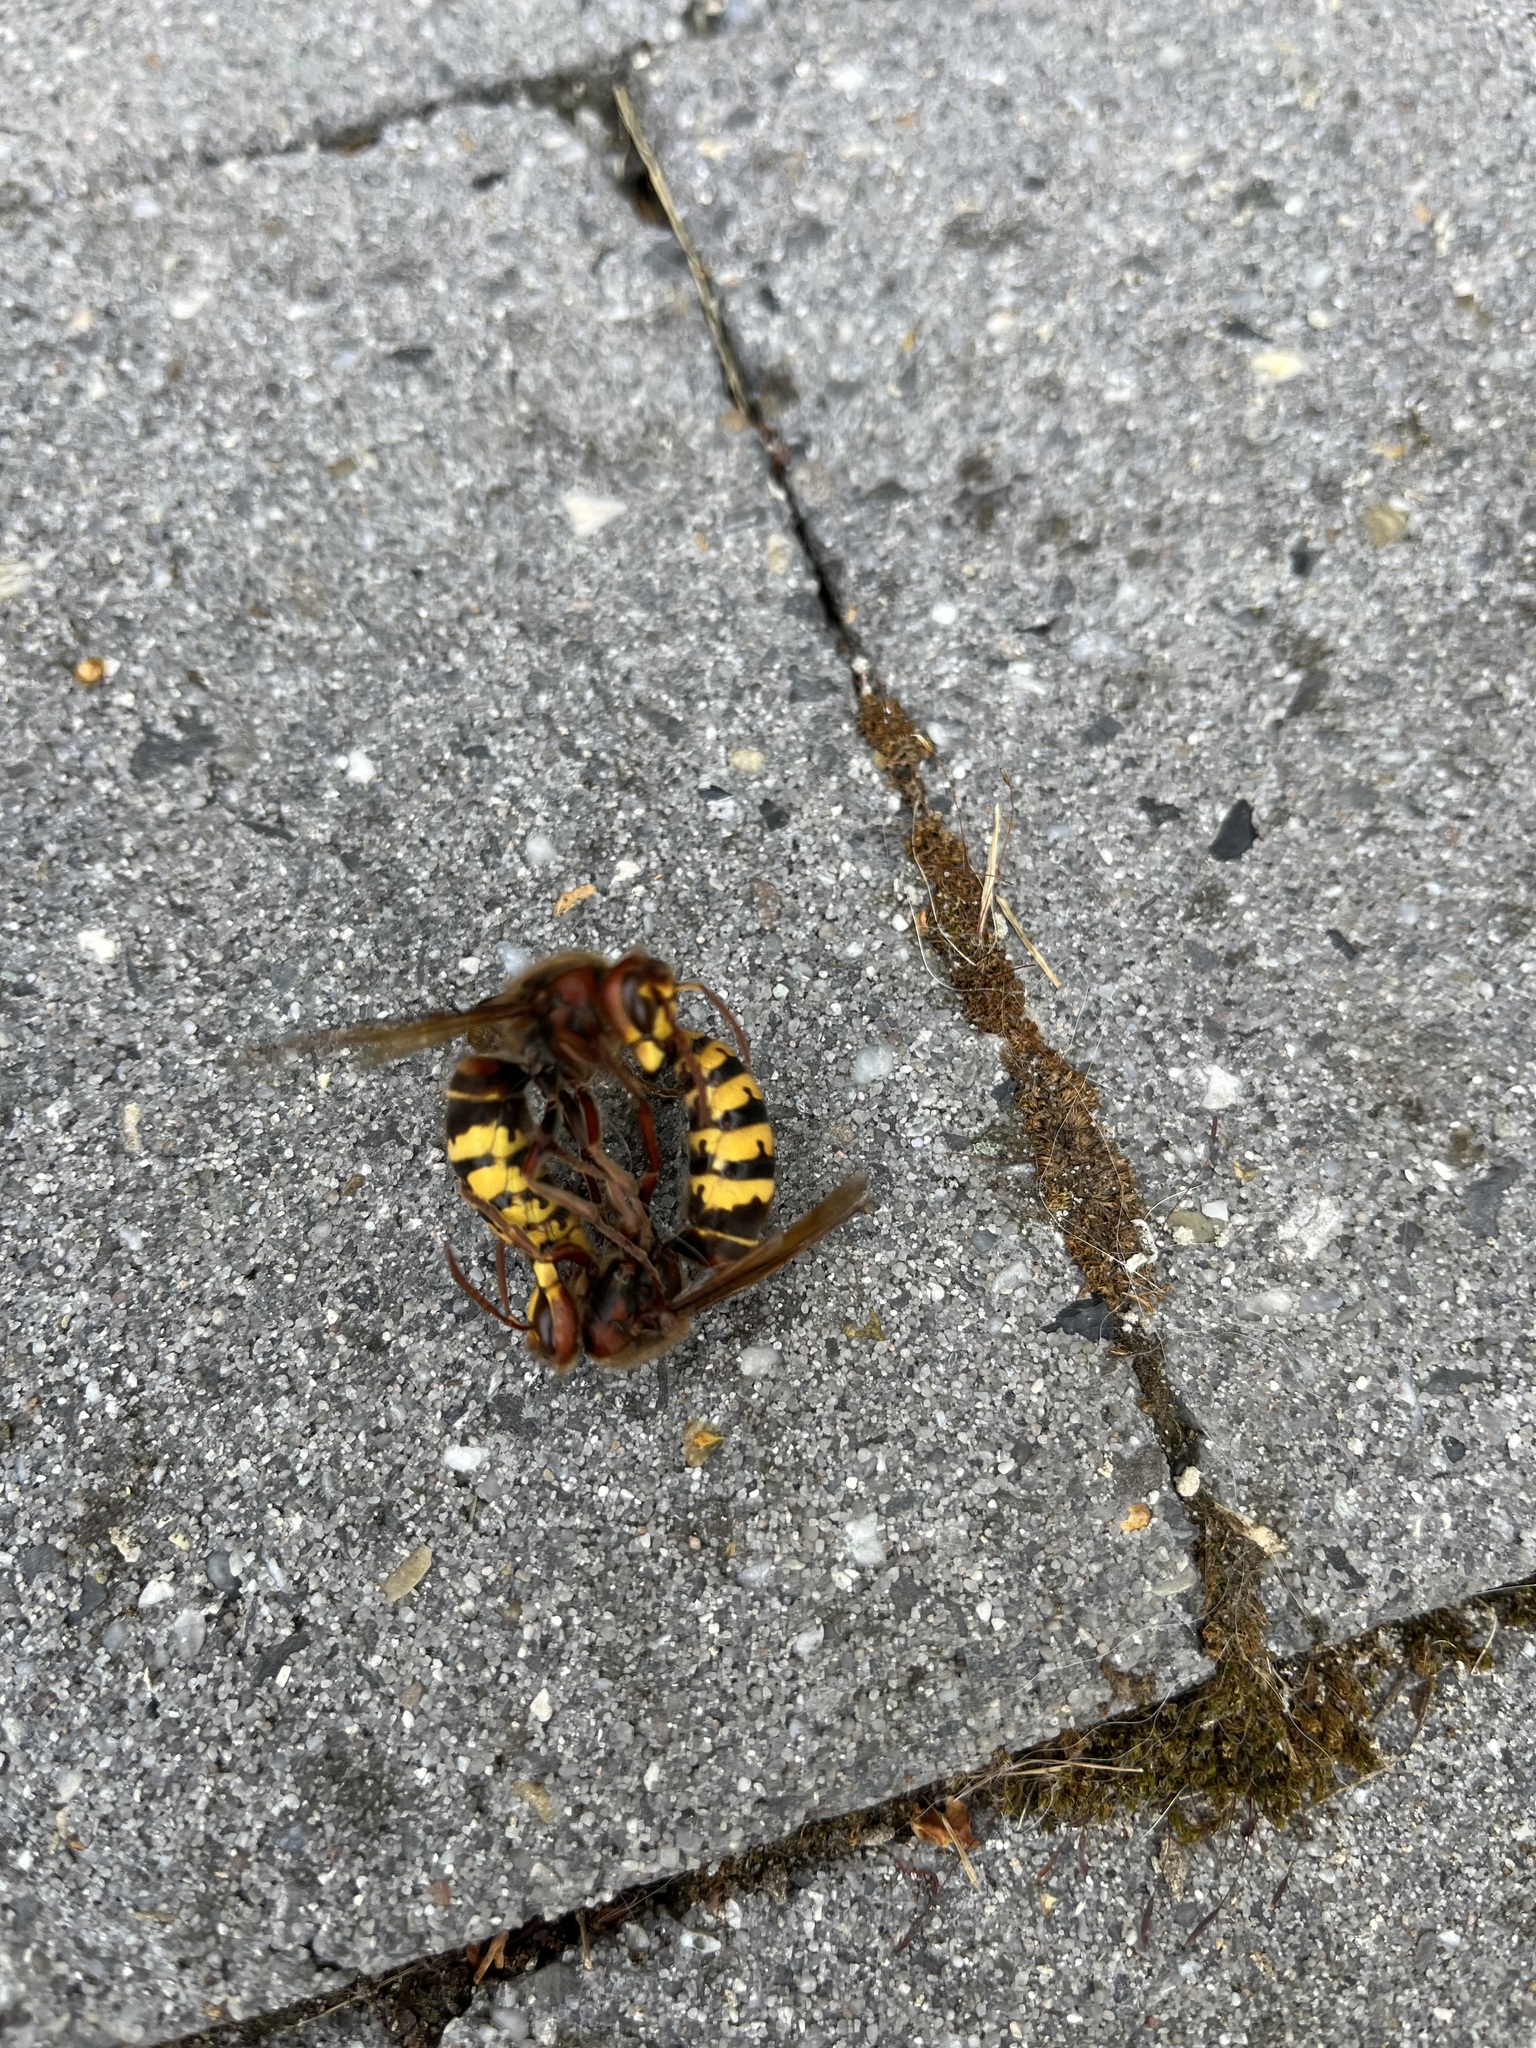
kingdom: Animalia
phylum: Arthropoda
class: Insecta
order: Hymenoptera
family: Vespidae
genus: Vespa
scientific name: Vespa crabro
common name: Hornet
